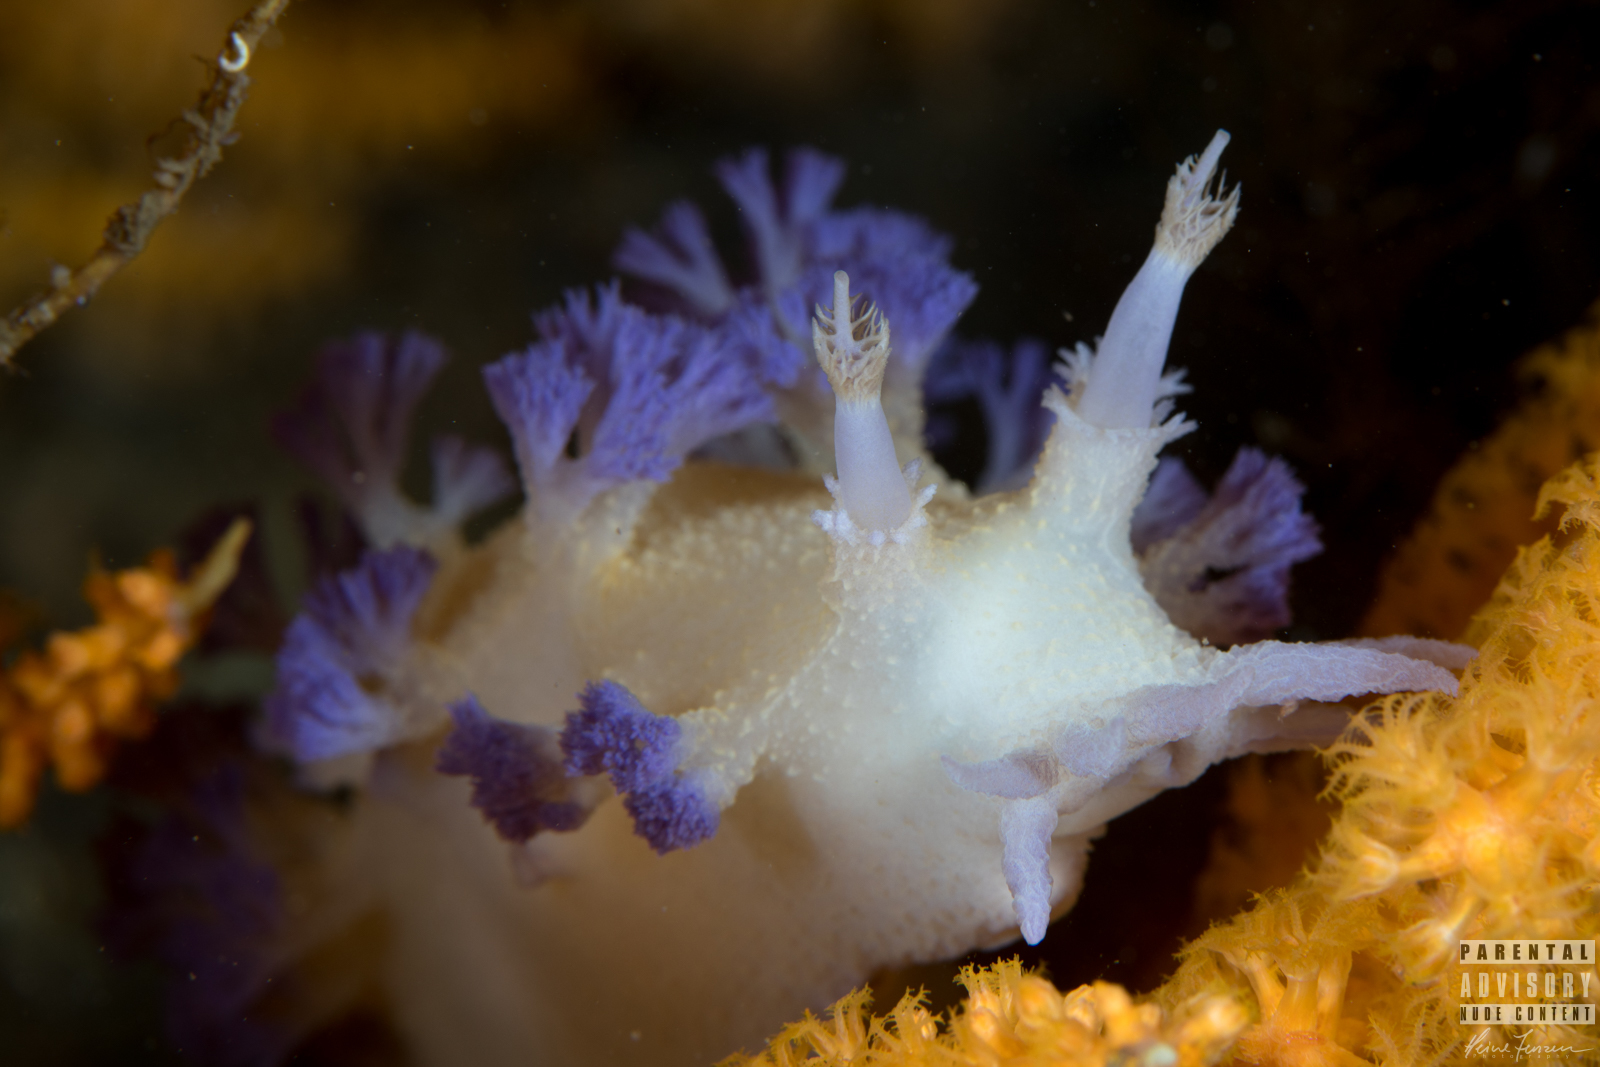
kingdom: Animalia
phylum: Mollusca
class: Gastropoda
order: Nudibranchia
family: Tritoniidae
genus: Tritonia
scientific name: Tritonia griegi
